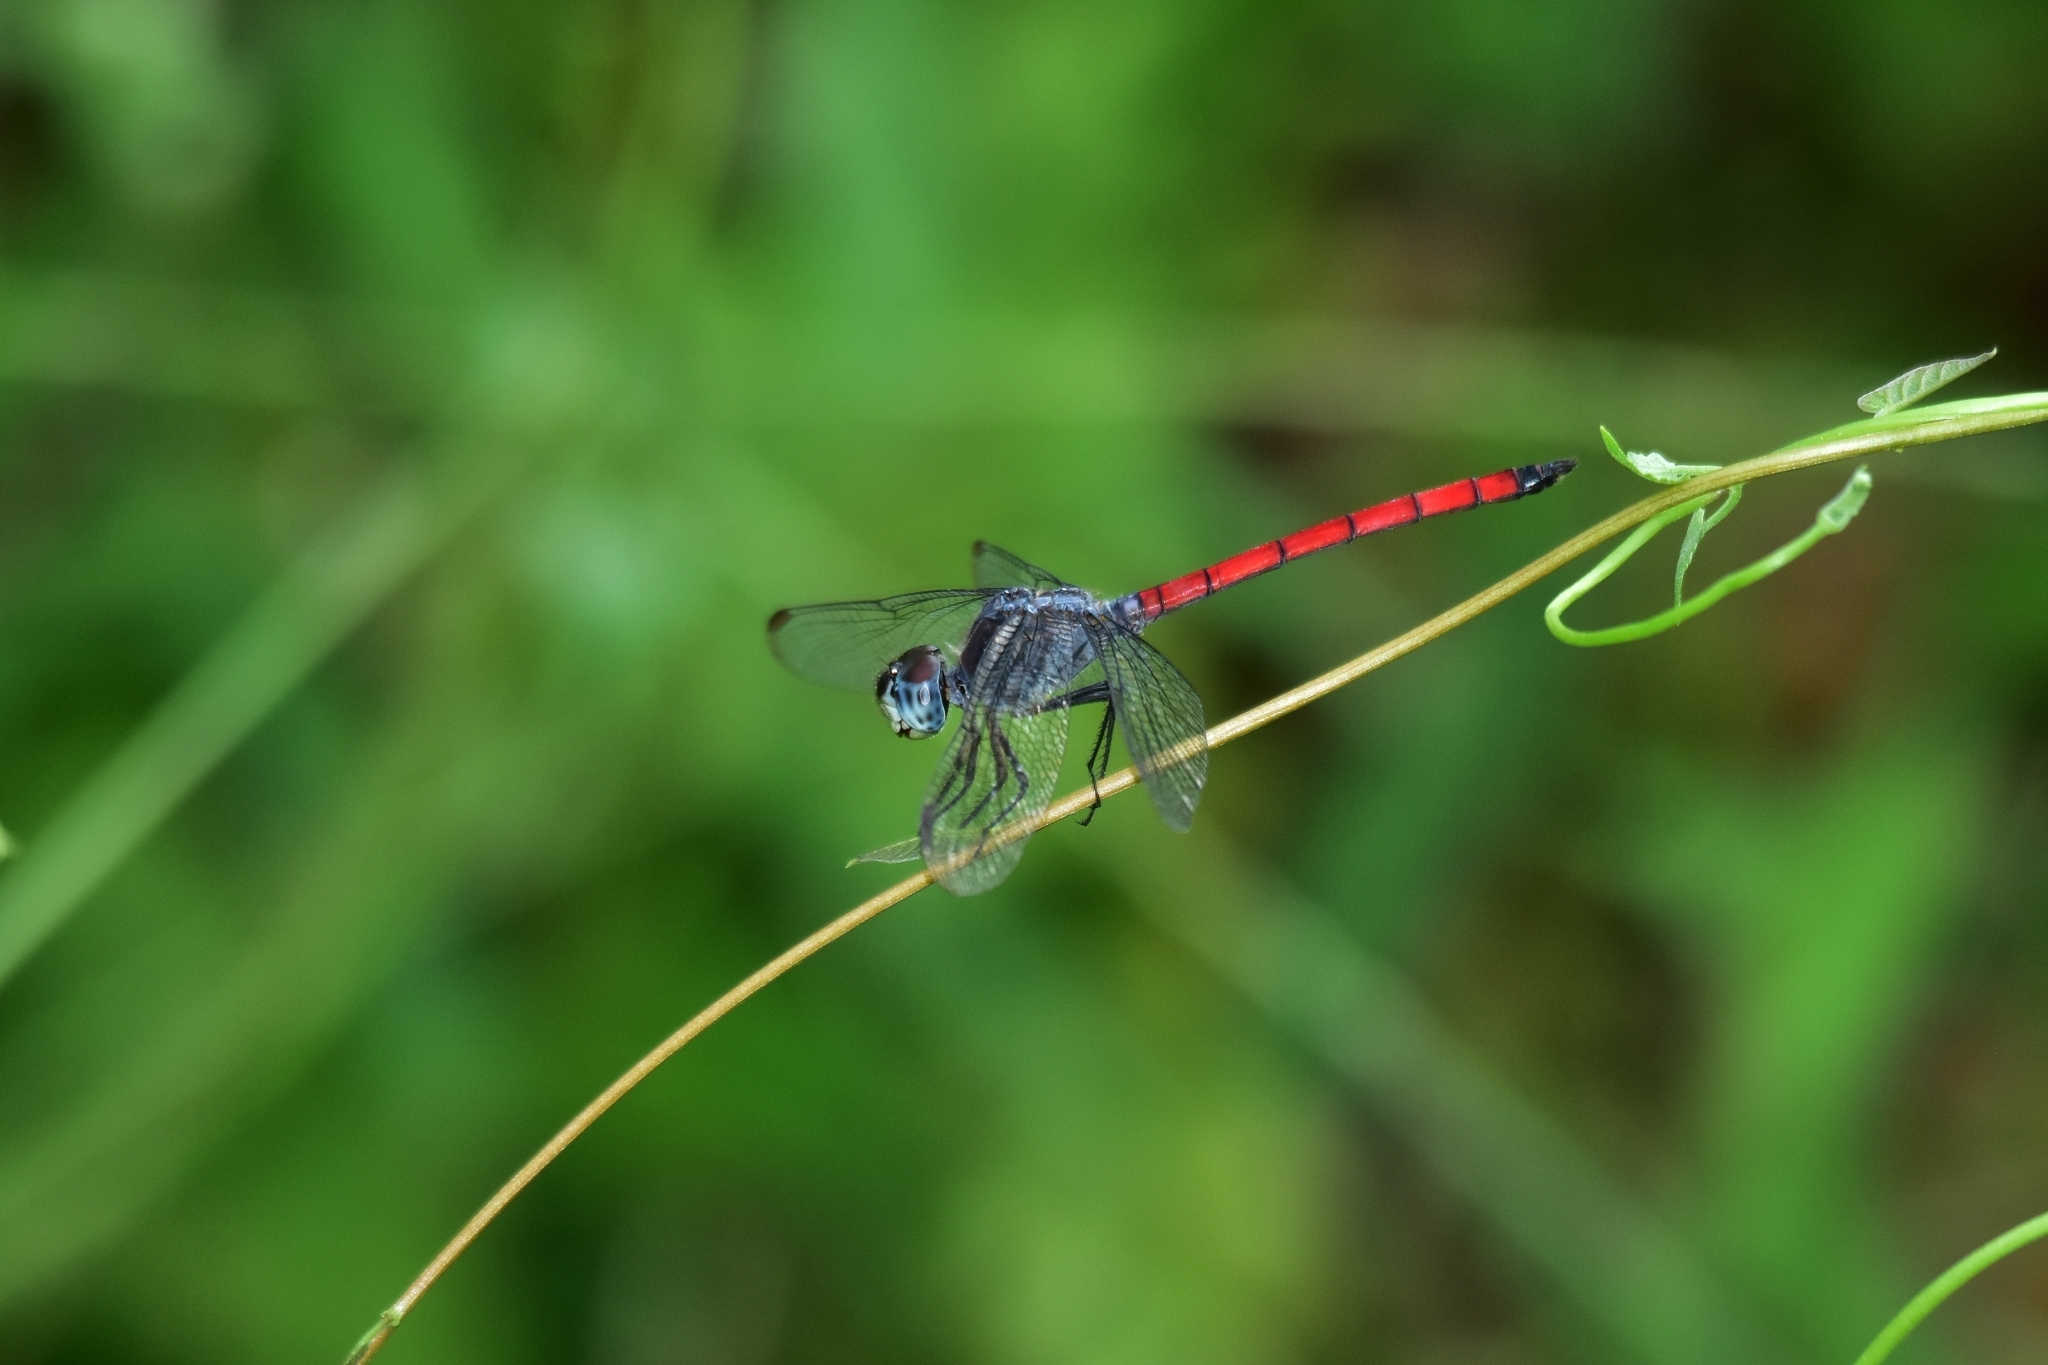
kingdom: Animalia
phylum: Arthropoda
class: Insecta
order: Odonata
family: Libellulidae
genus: Lathrecista
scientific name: Lathrecista asiatica
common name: Scarlet grenadier
